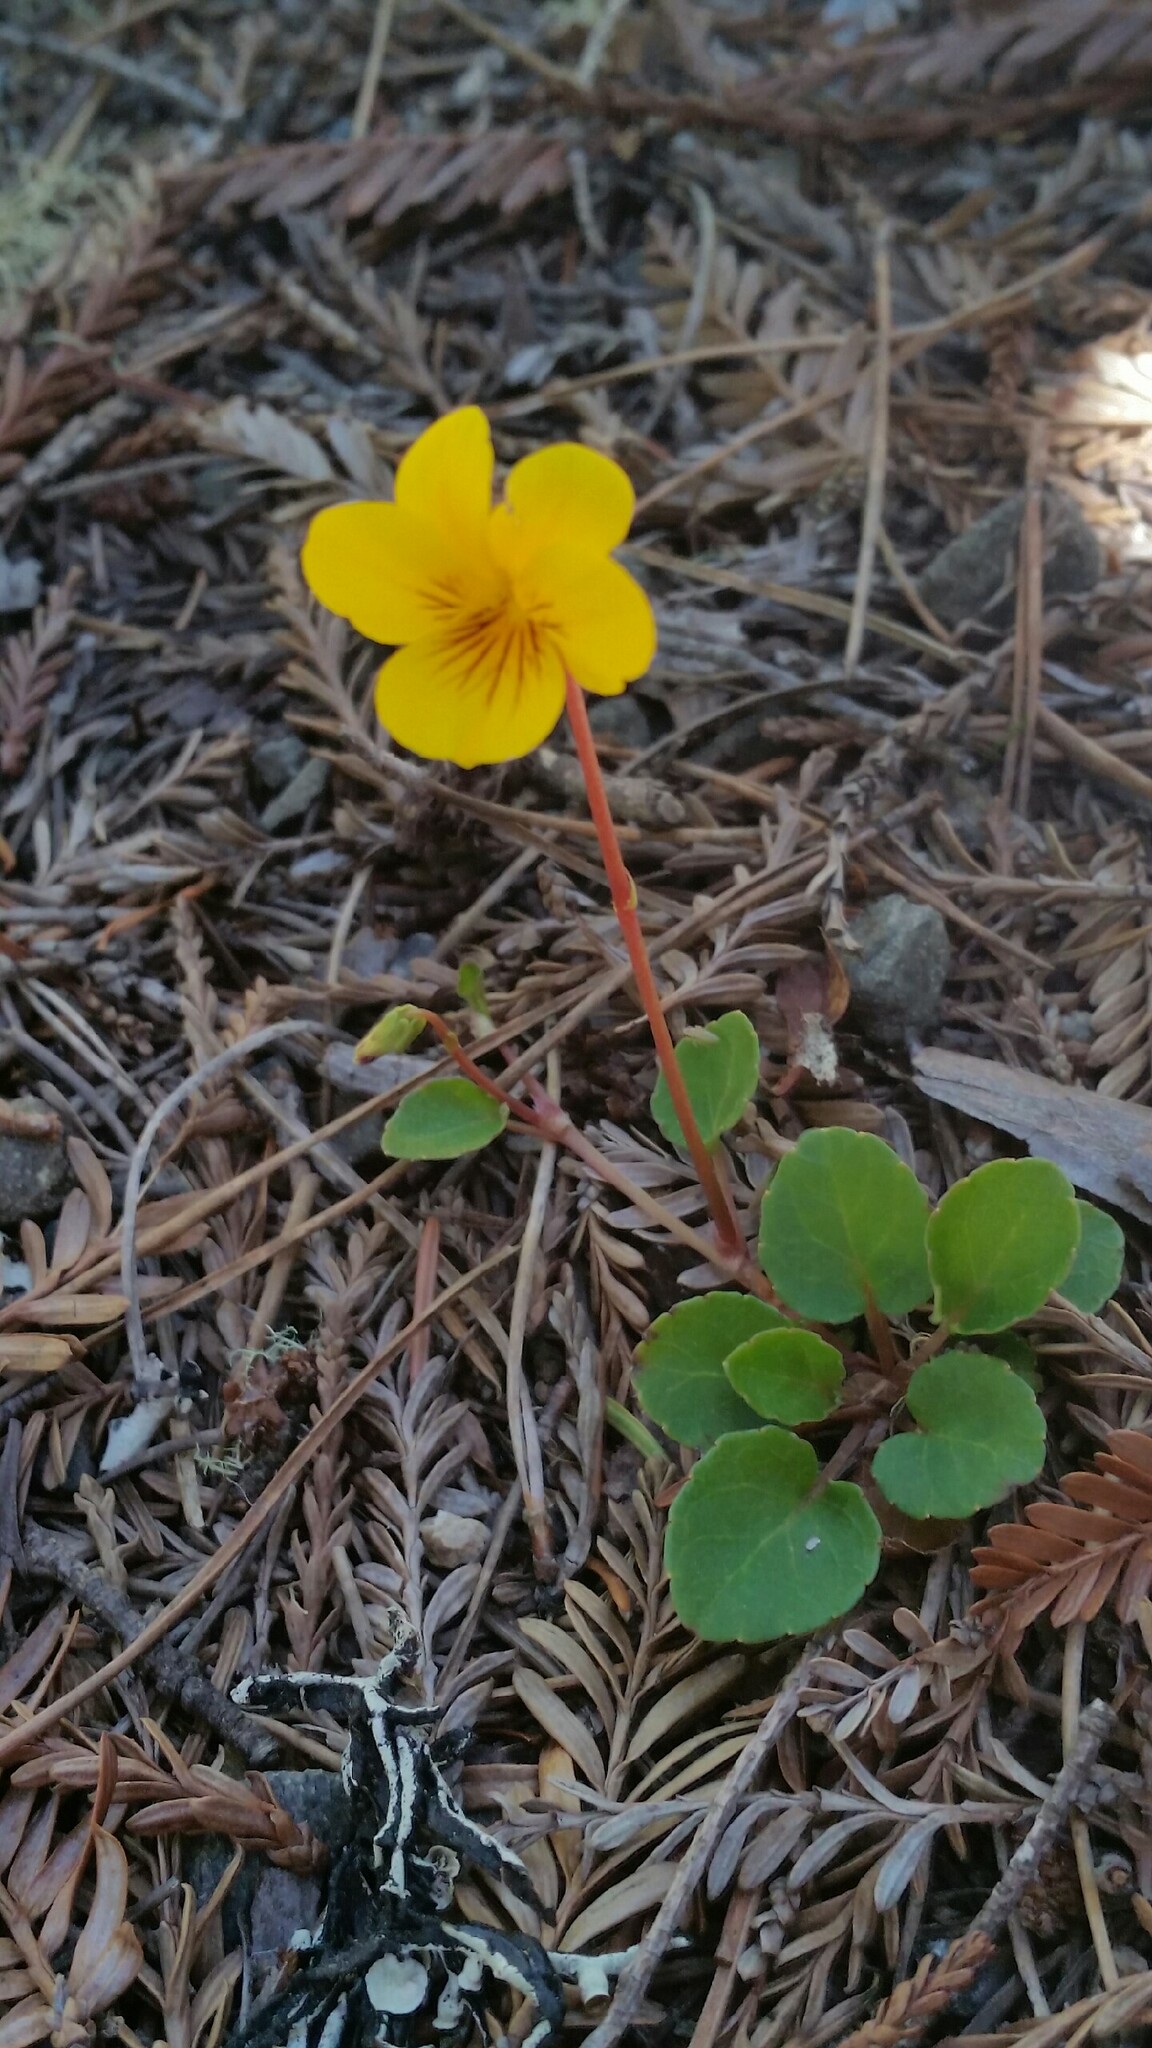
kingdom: Plantae
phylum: Tracheophyta
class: Magnoliopsida
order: Malpighiales
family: Violaceae
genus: Viola
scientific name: Viola sempervirens
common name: Evergreen violet
